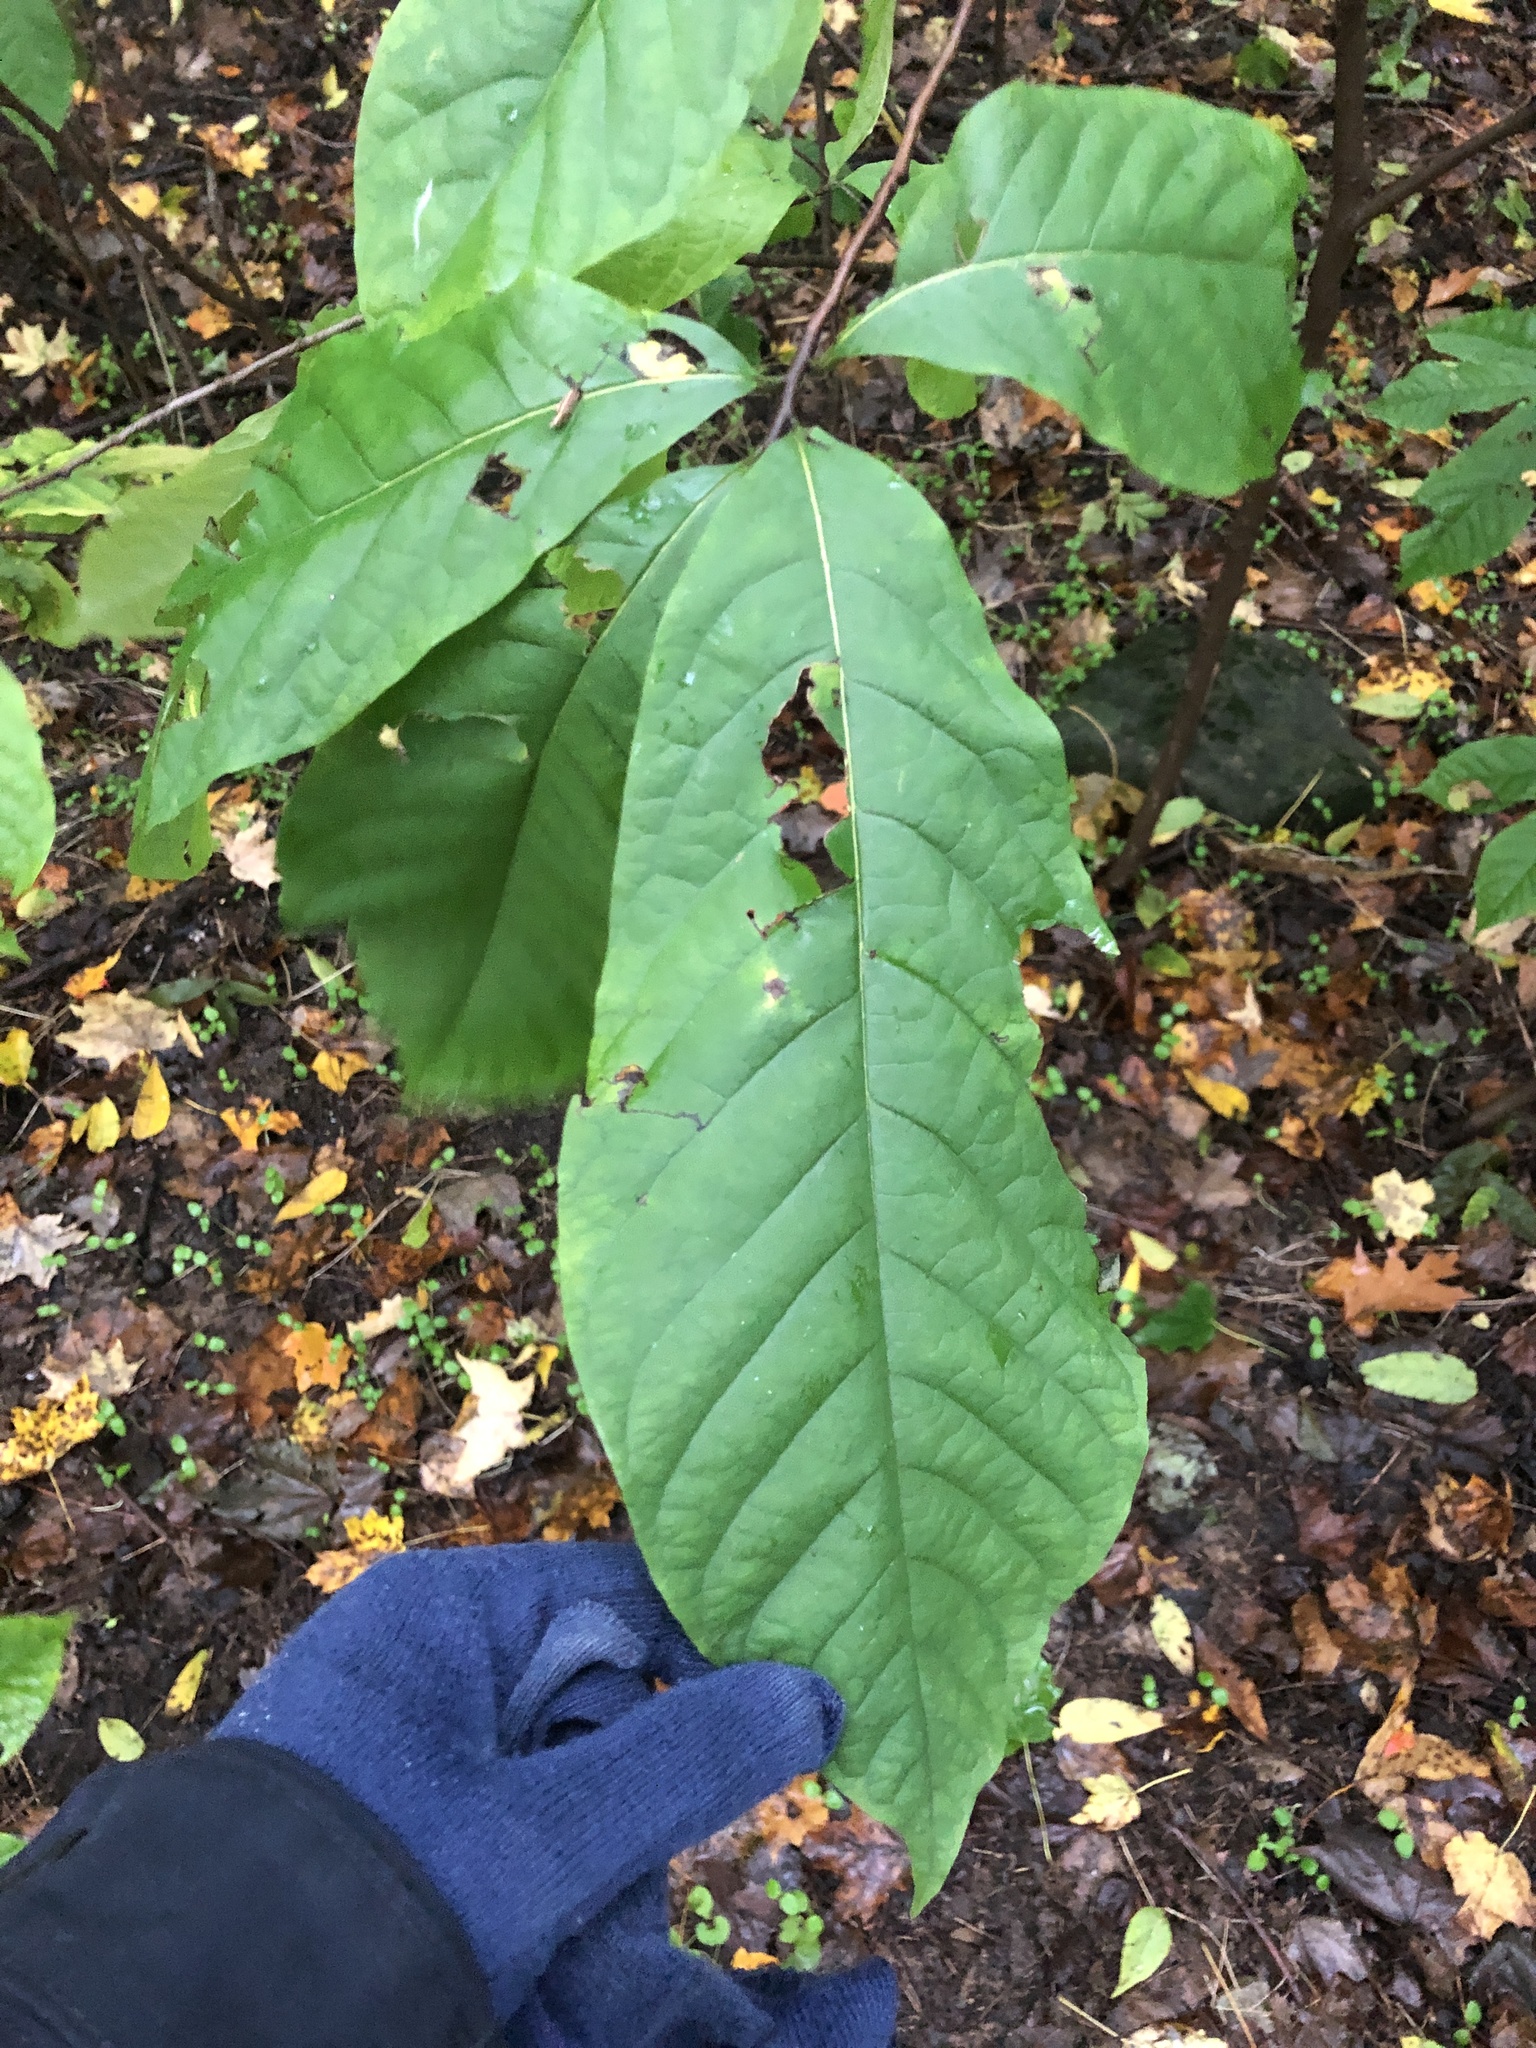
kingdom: Plantae
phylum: Tracheophyta
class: Magnoliopsida
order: Magnoliales
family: Annonaceae
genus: Asimina
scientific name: Asimina triloba
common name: Dog-banana
